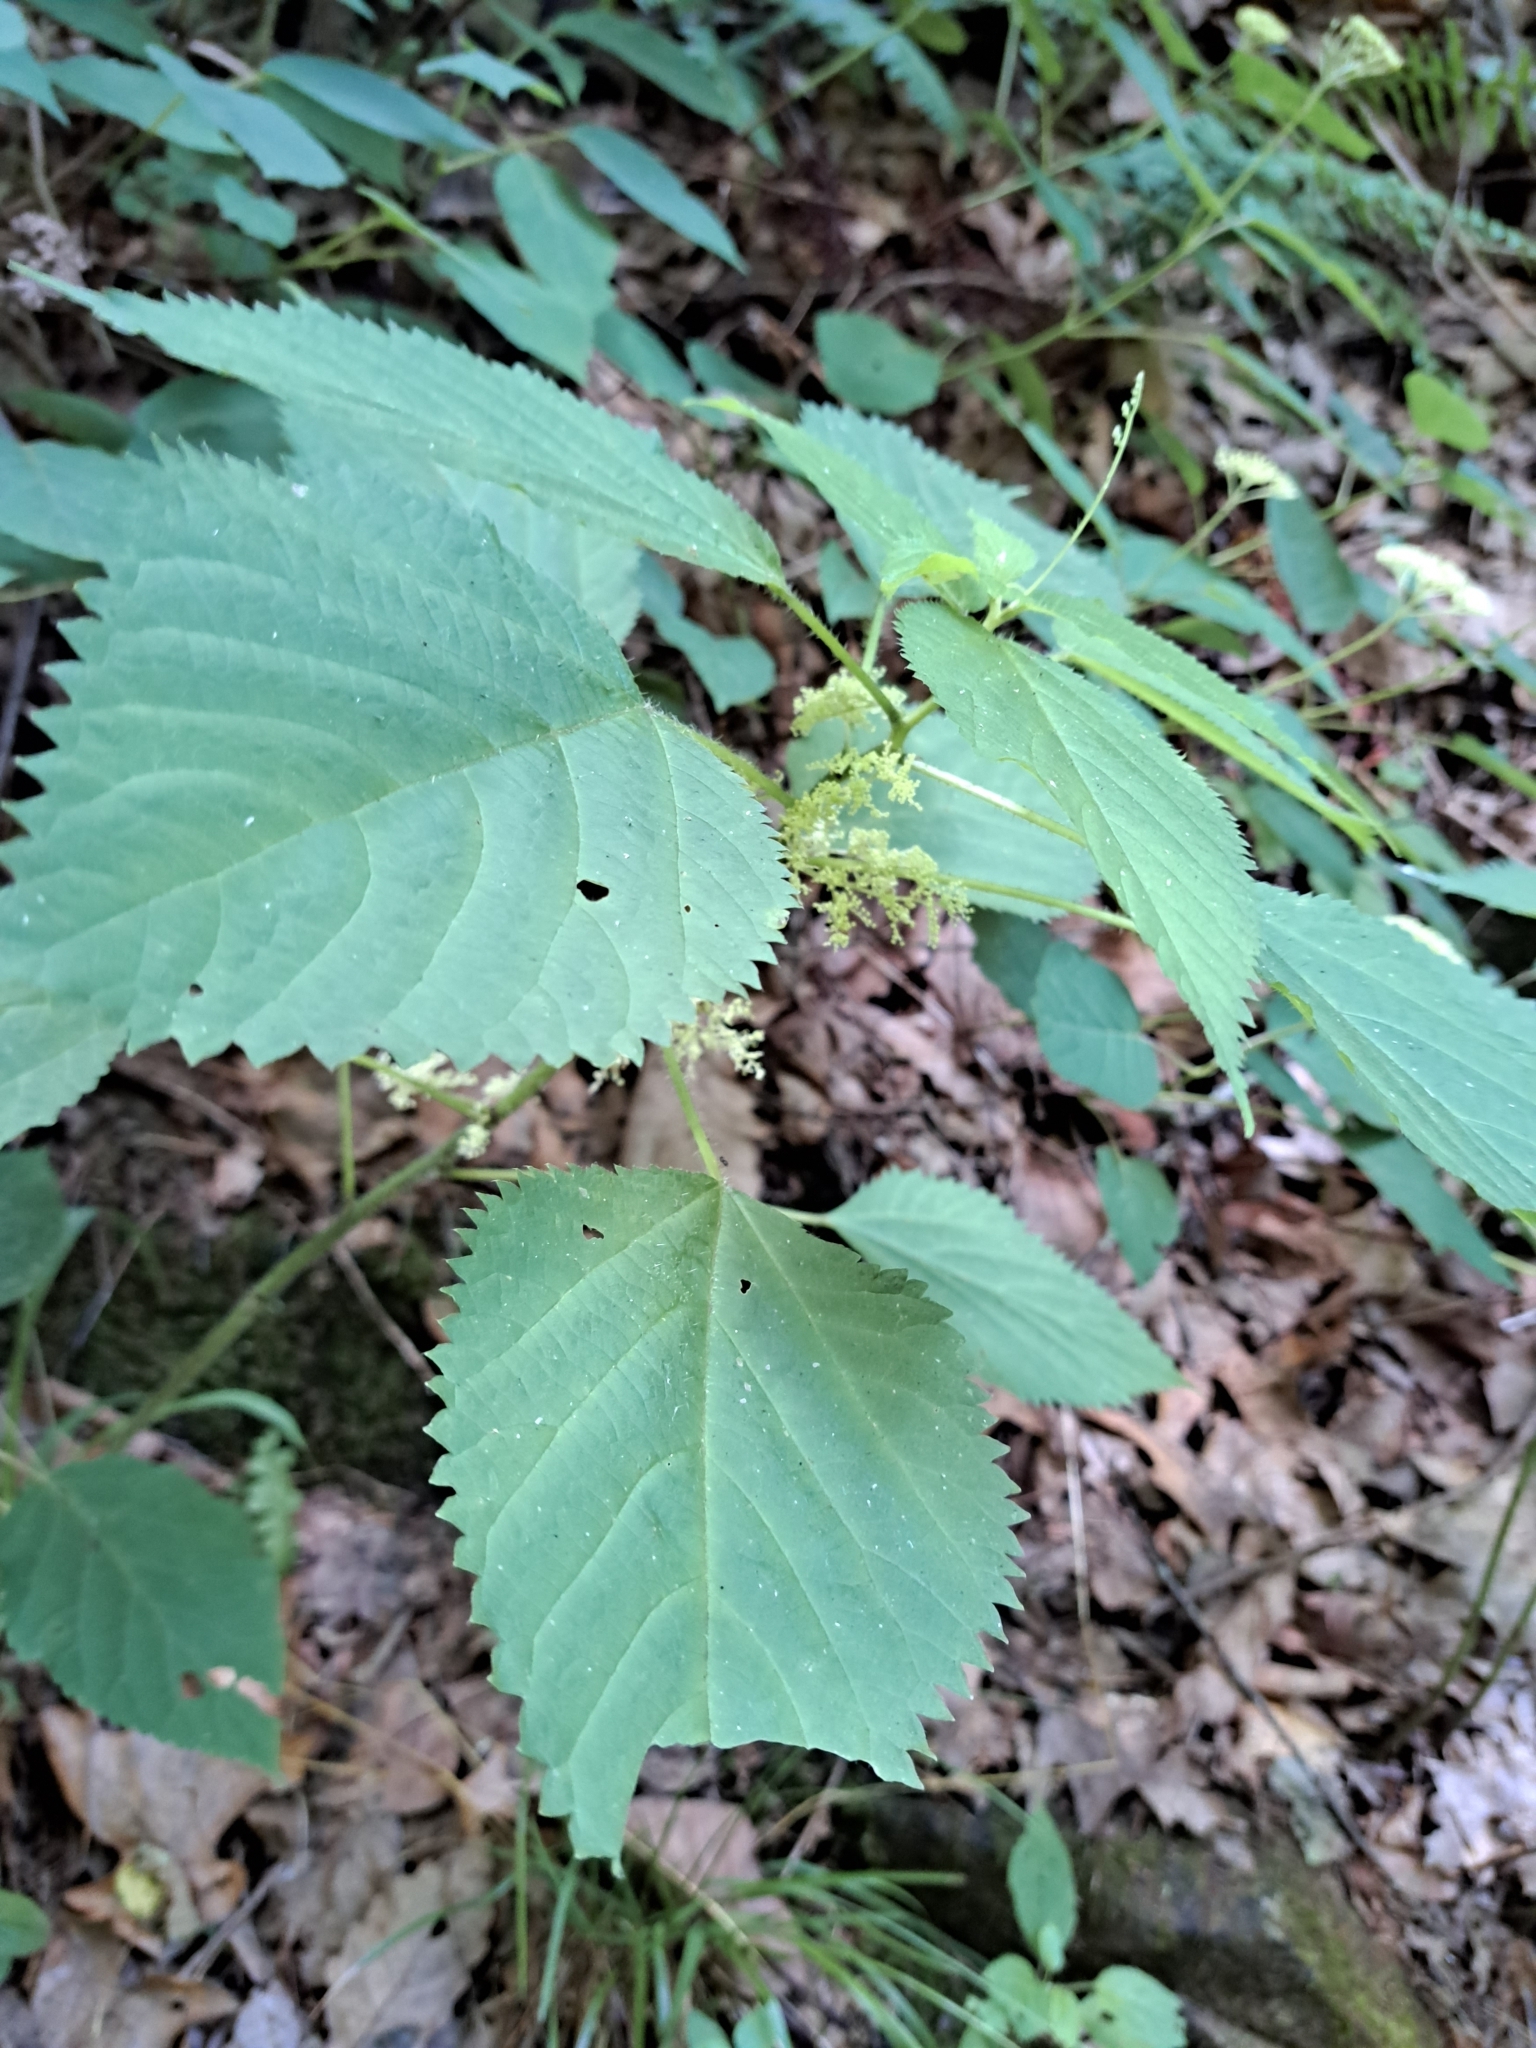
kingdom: Plantae
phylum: Tracheophyta
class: Magnoliopsida
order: Rosales
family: Urticaceae
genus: Laportea
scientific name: Laportea canadensis
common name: Canada nettle
